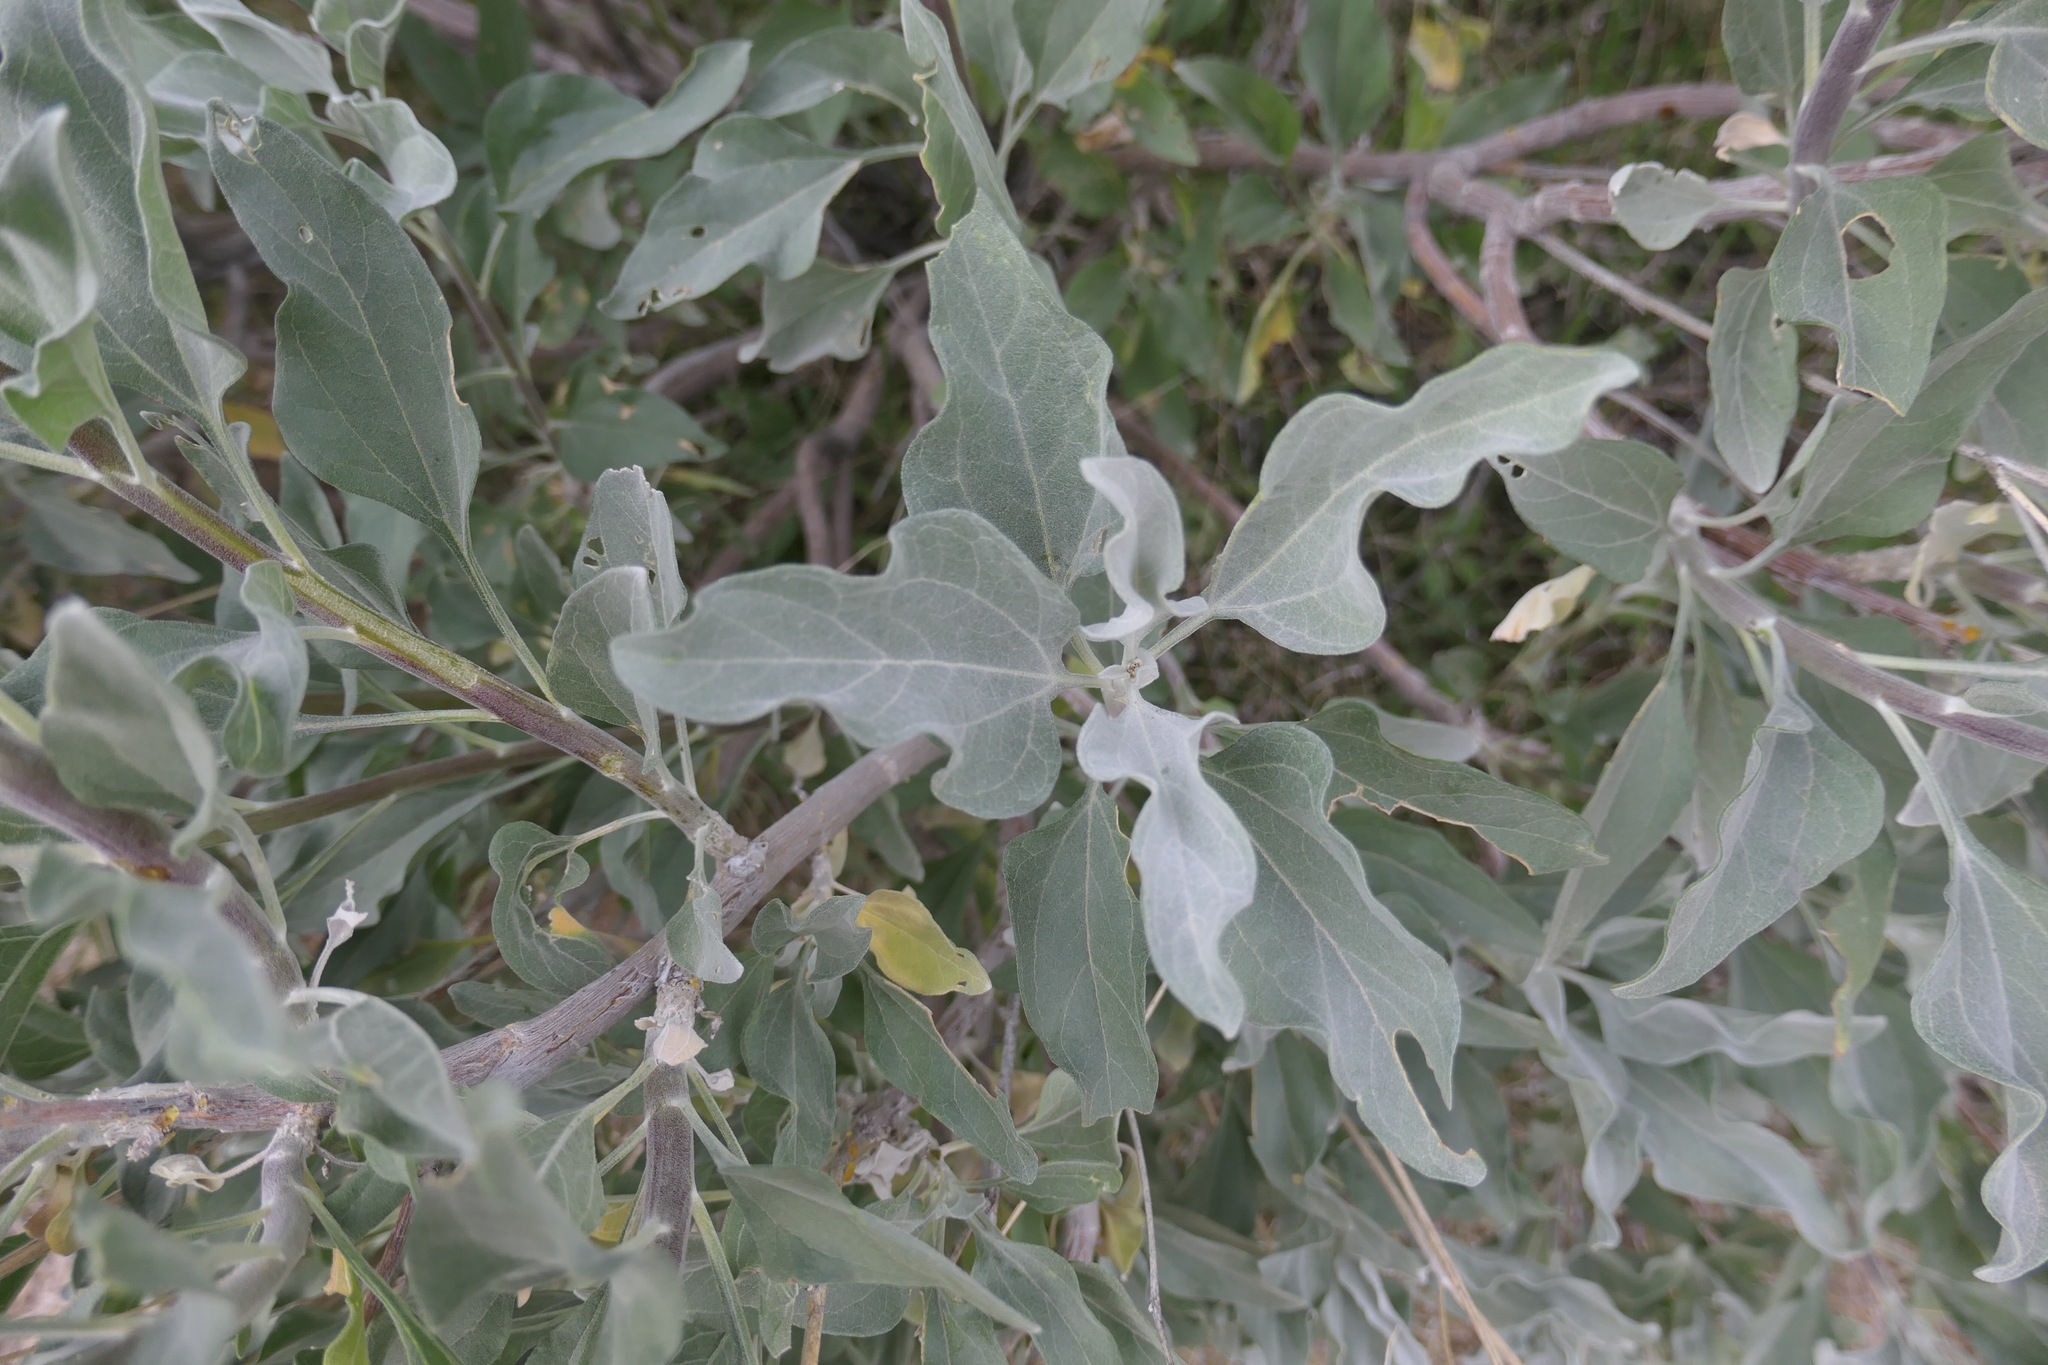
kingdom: Plantae
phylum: Tracheophyta
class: Magnoliopsida
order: Asterales
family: Asteraceae
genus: Encelia
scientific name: Encelia farinosa
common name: Brittlebush
